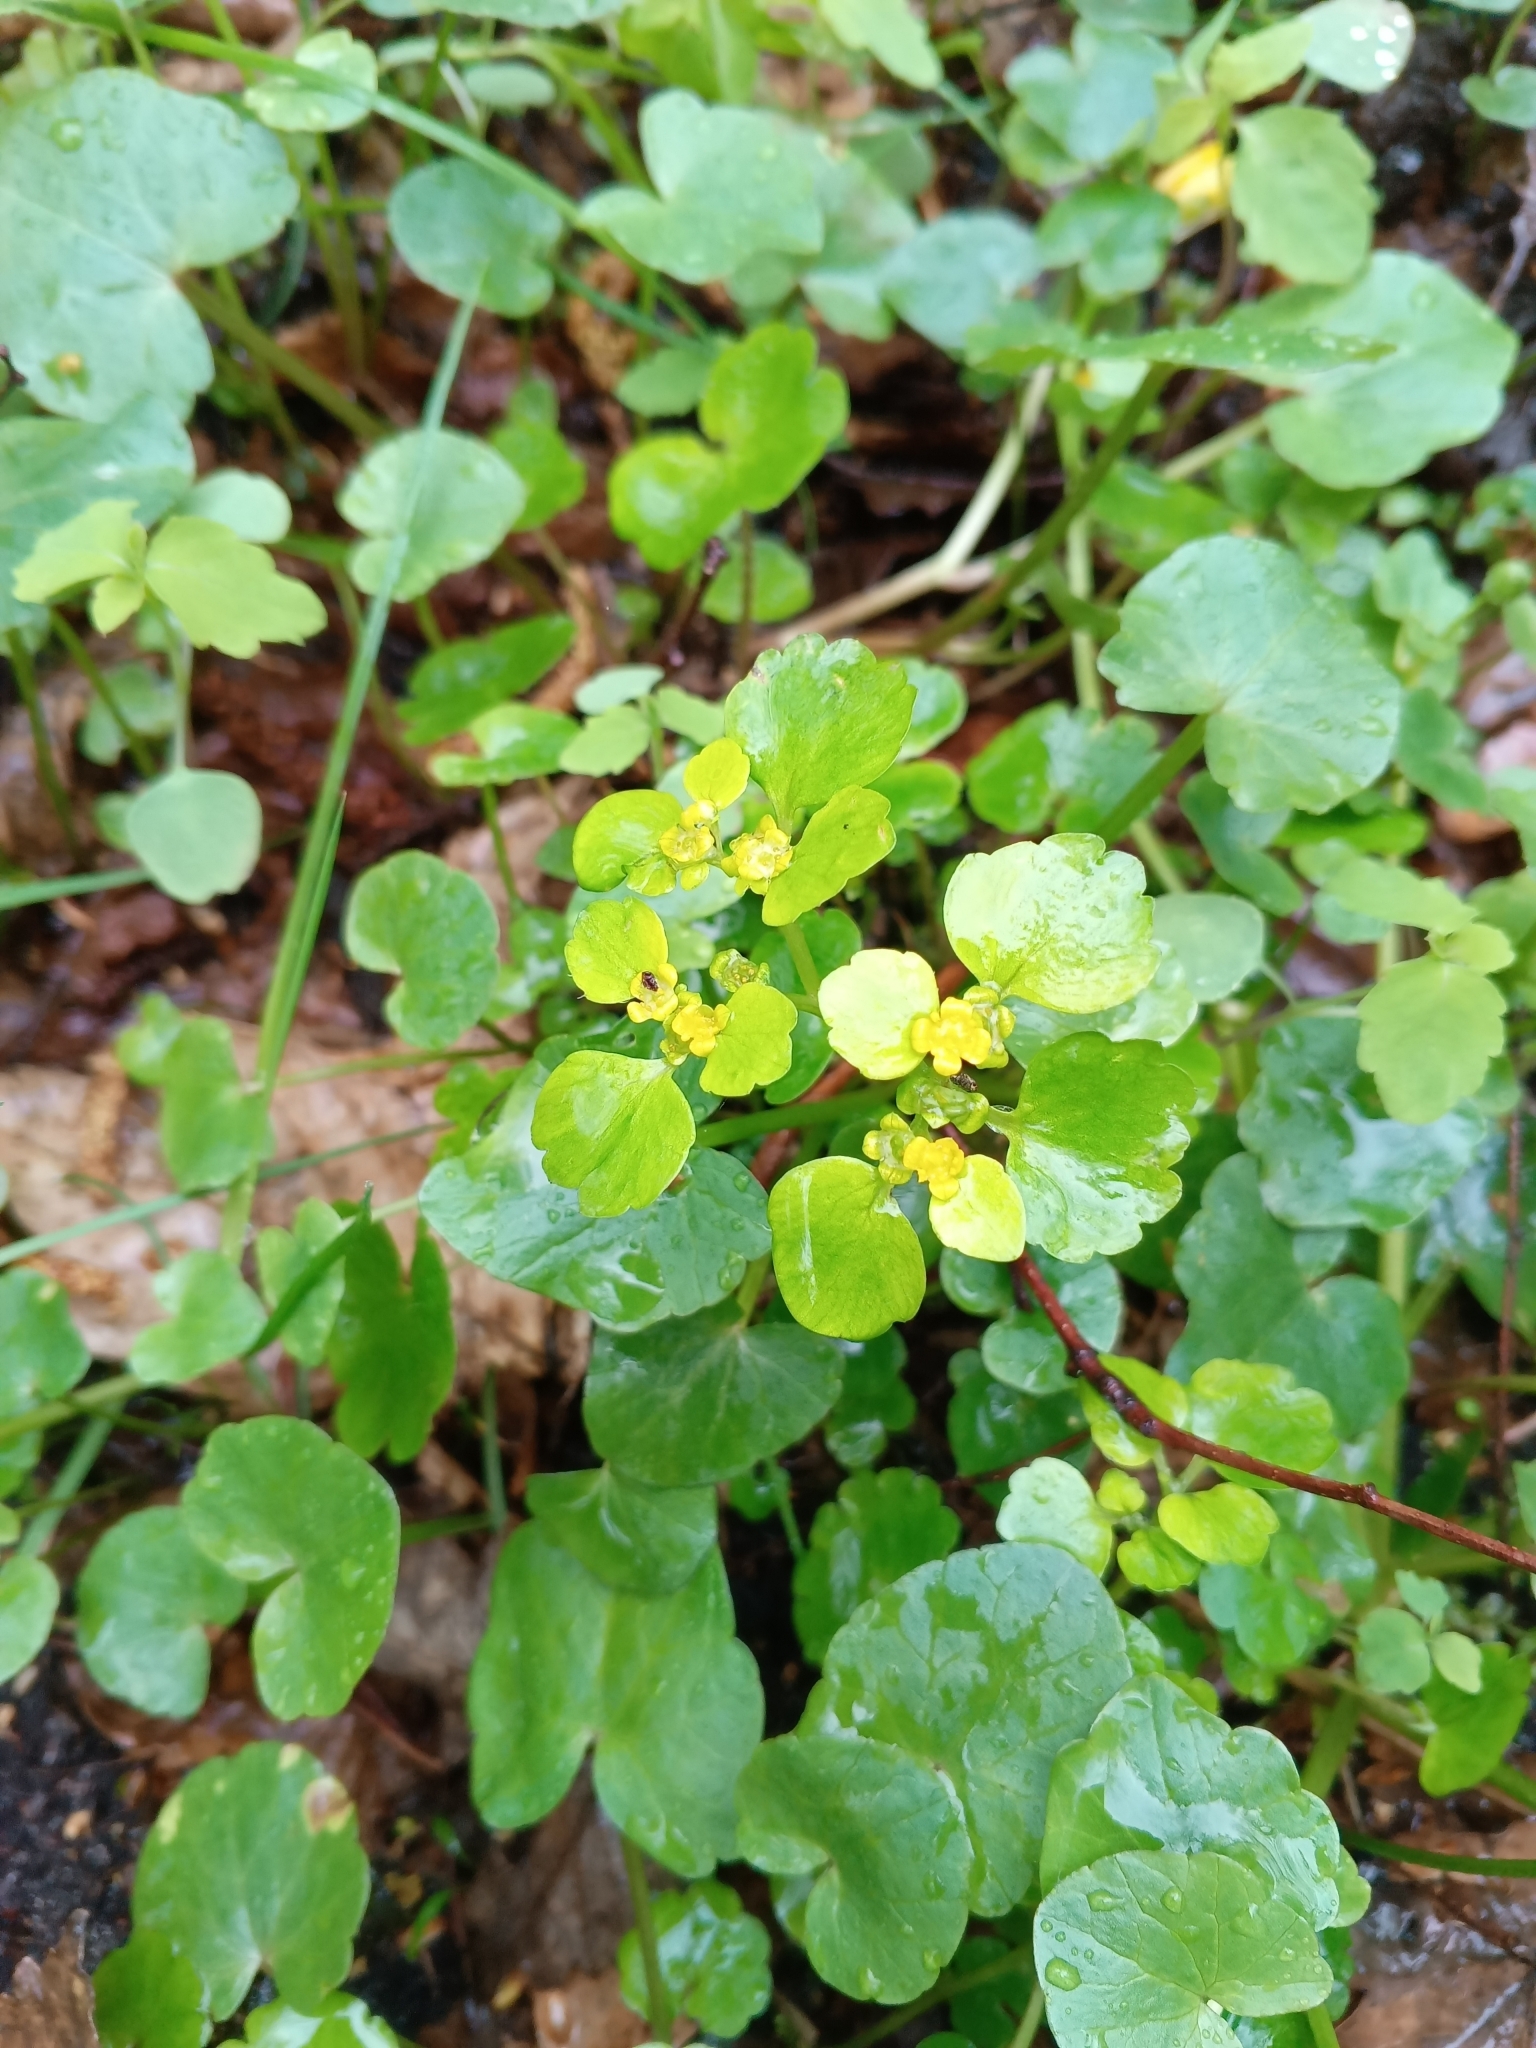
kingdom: Plantae
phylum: Tracheophyta
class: Magnoliopsida
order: Saxifragales
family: Saxifragaceae
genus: Chrysosplenium
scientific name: Chrysosplenium alternifolium
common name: Alternate-leaved golden-saxifrage
